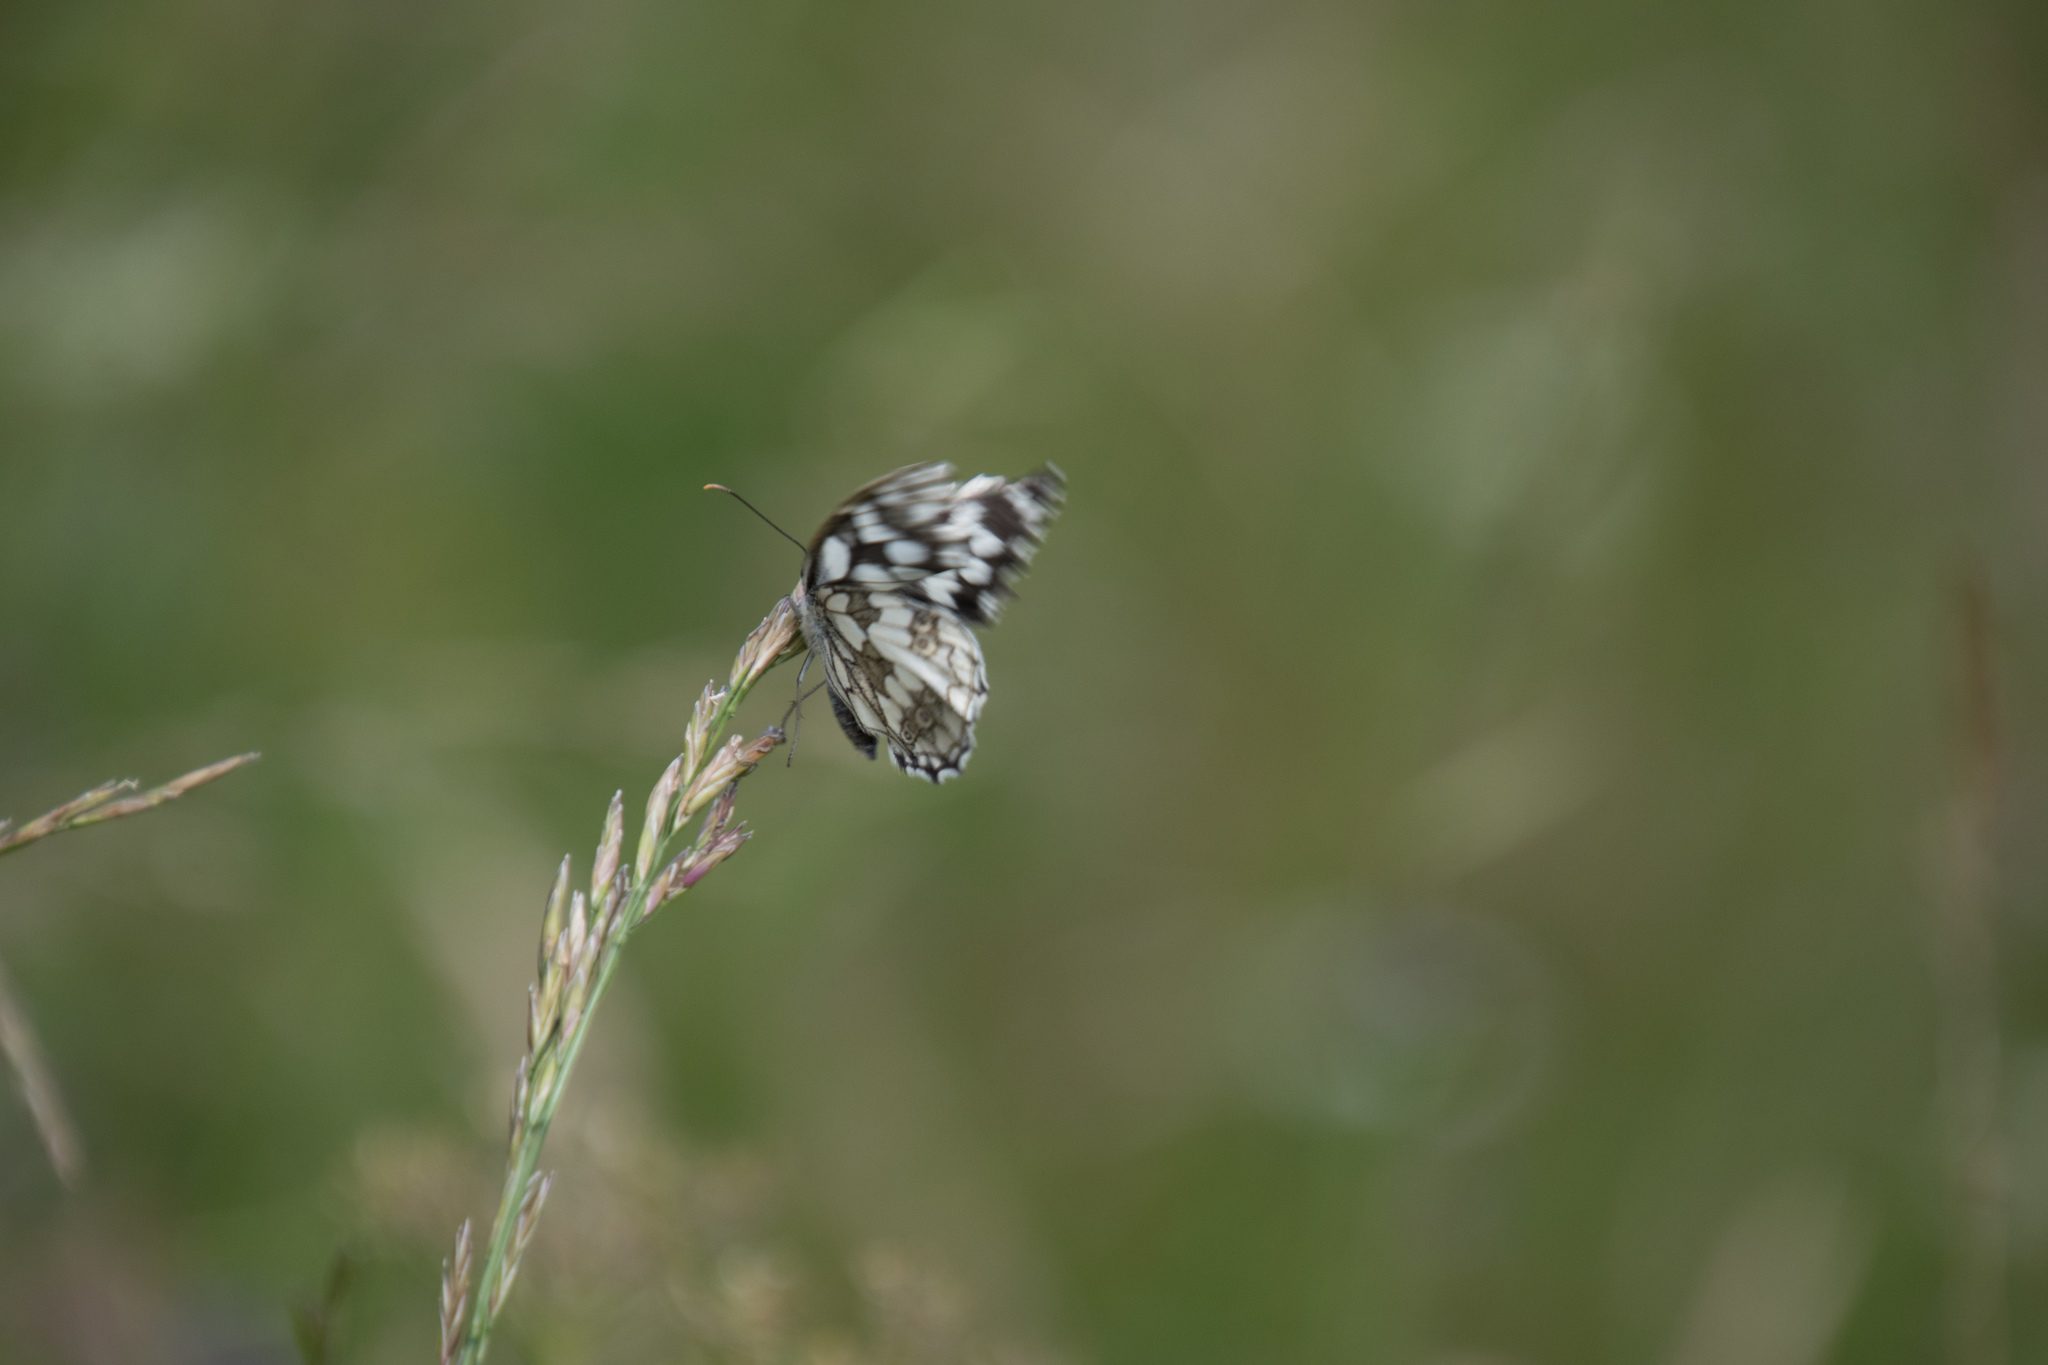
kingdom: Animalia
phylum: Arthropoda
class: Insecta
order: Lepidoptera
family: Nymphalidae
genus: Melanargia
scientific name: Melanargia galathea
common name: Marbled white
